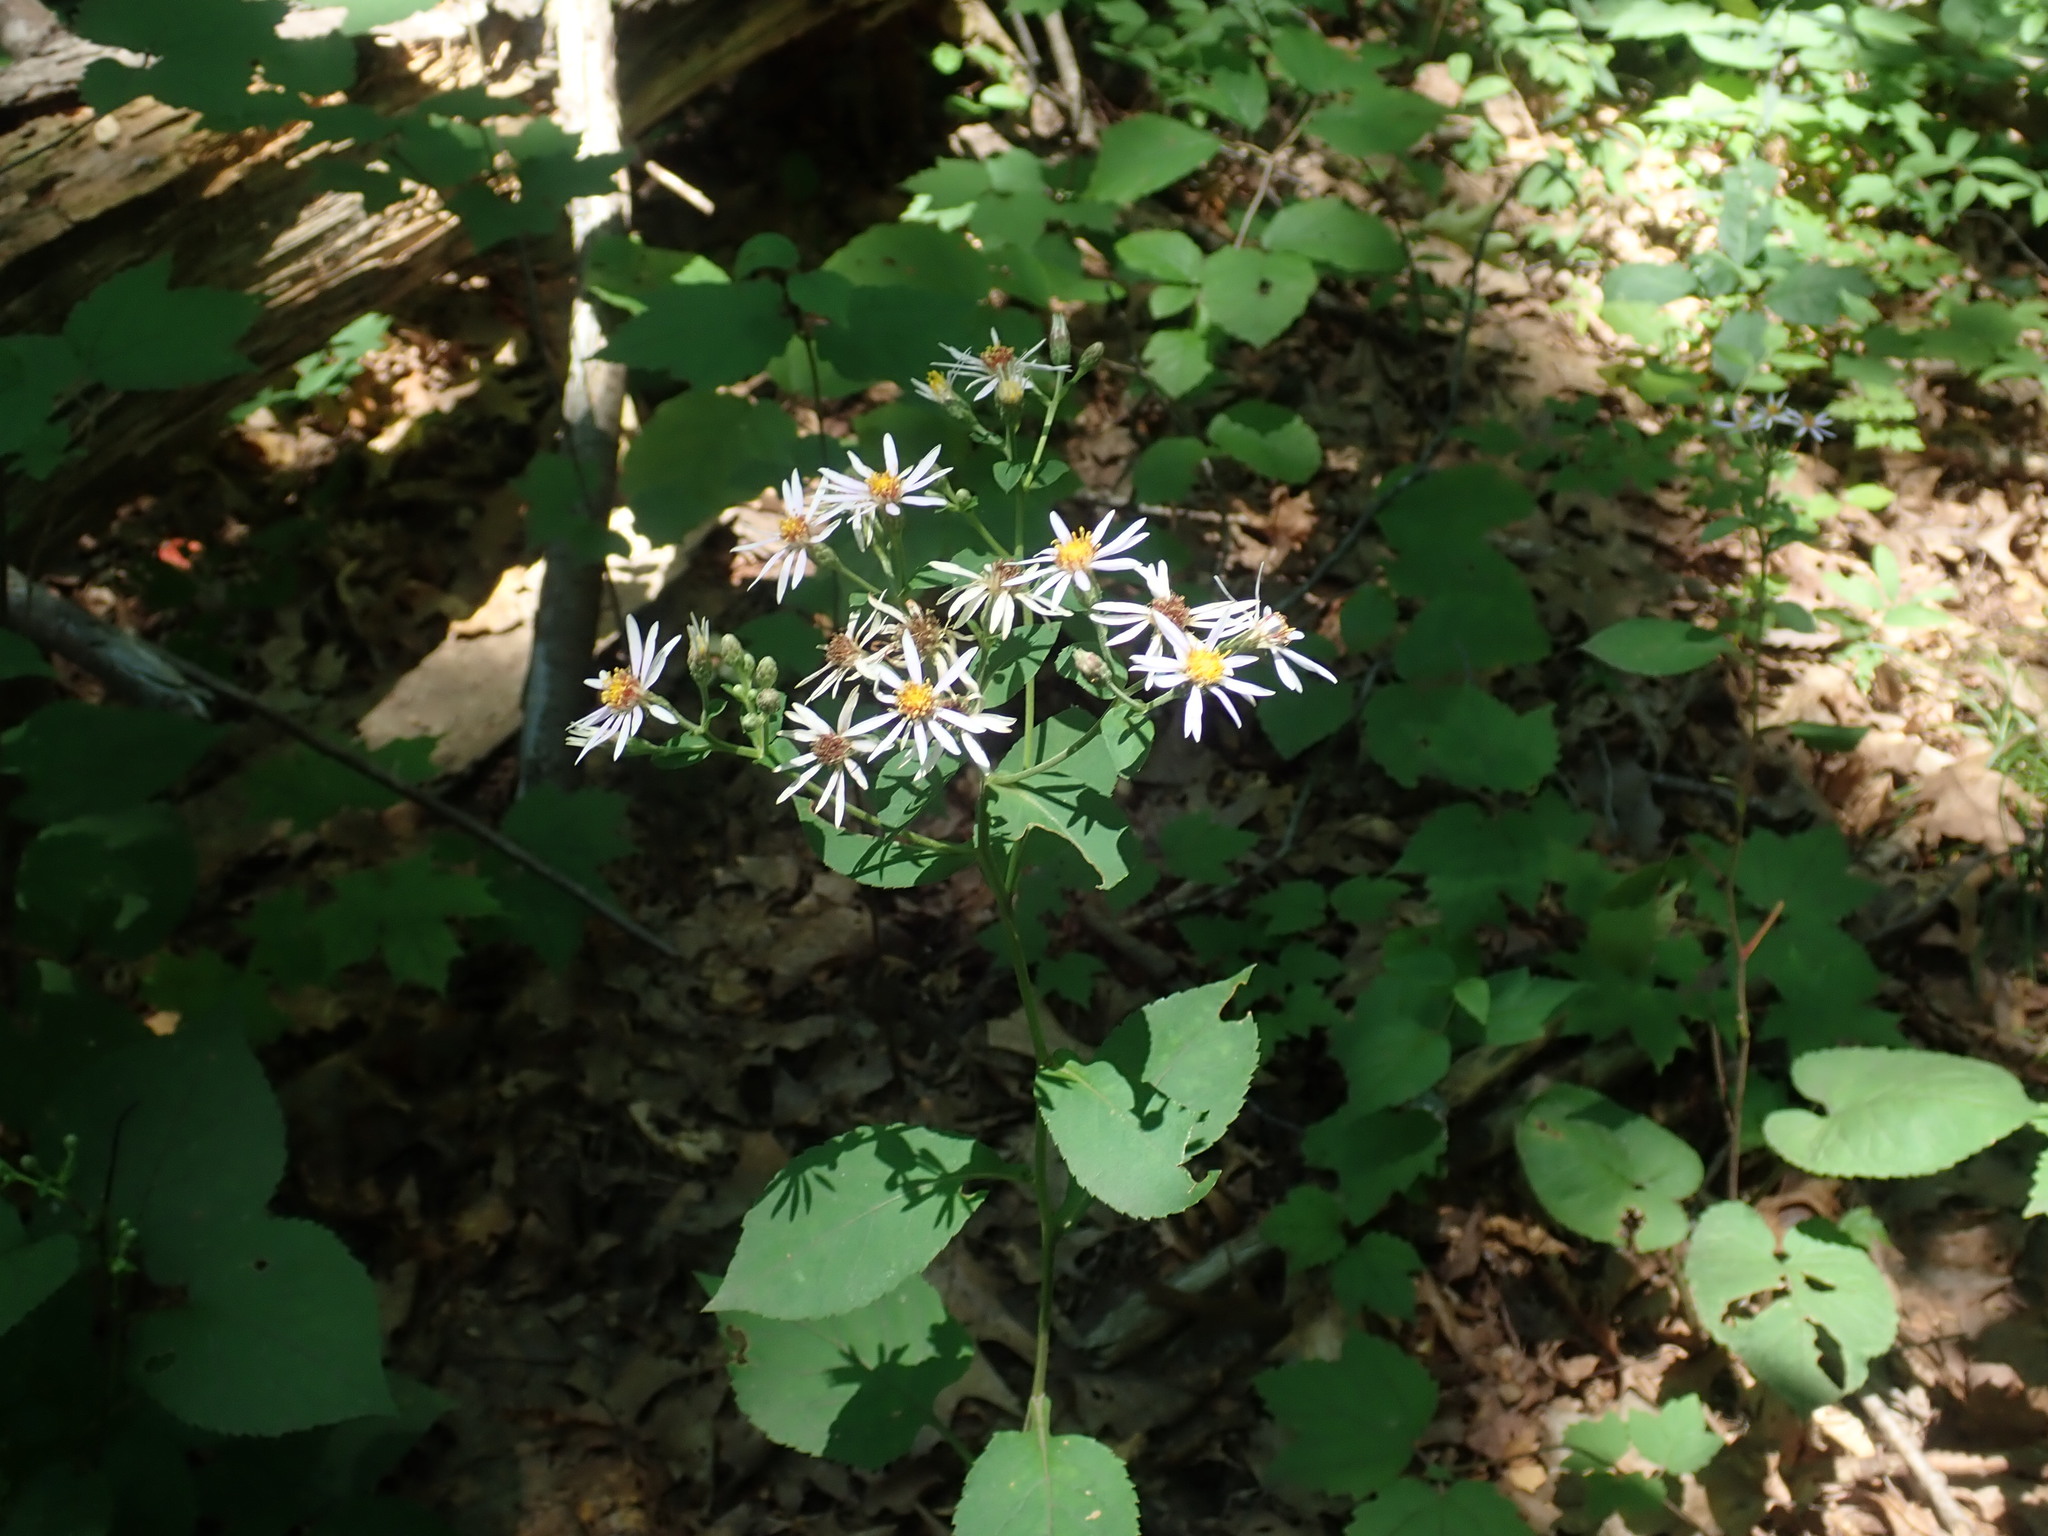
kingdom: Plantae
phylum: Tracheophyta
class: Magnoliopsida
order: Asterales
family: Asteraceae
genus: Eurybia
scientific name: Eurybia macrophylla
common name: Big-leaved aster
